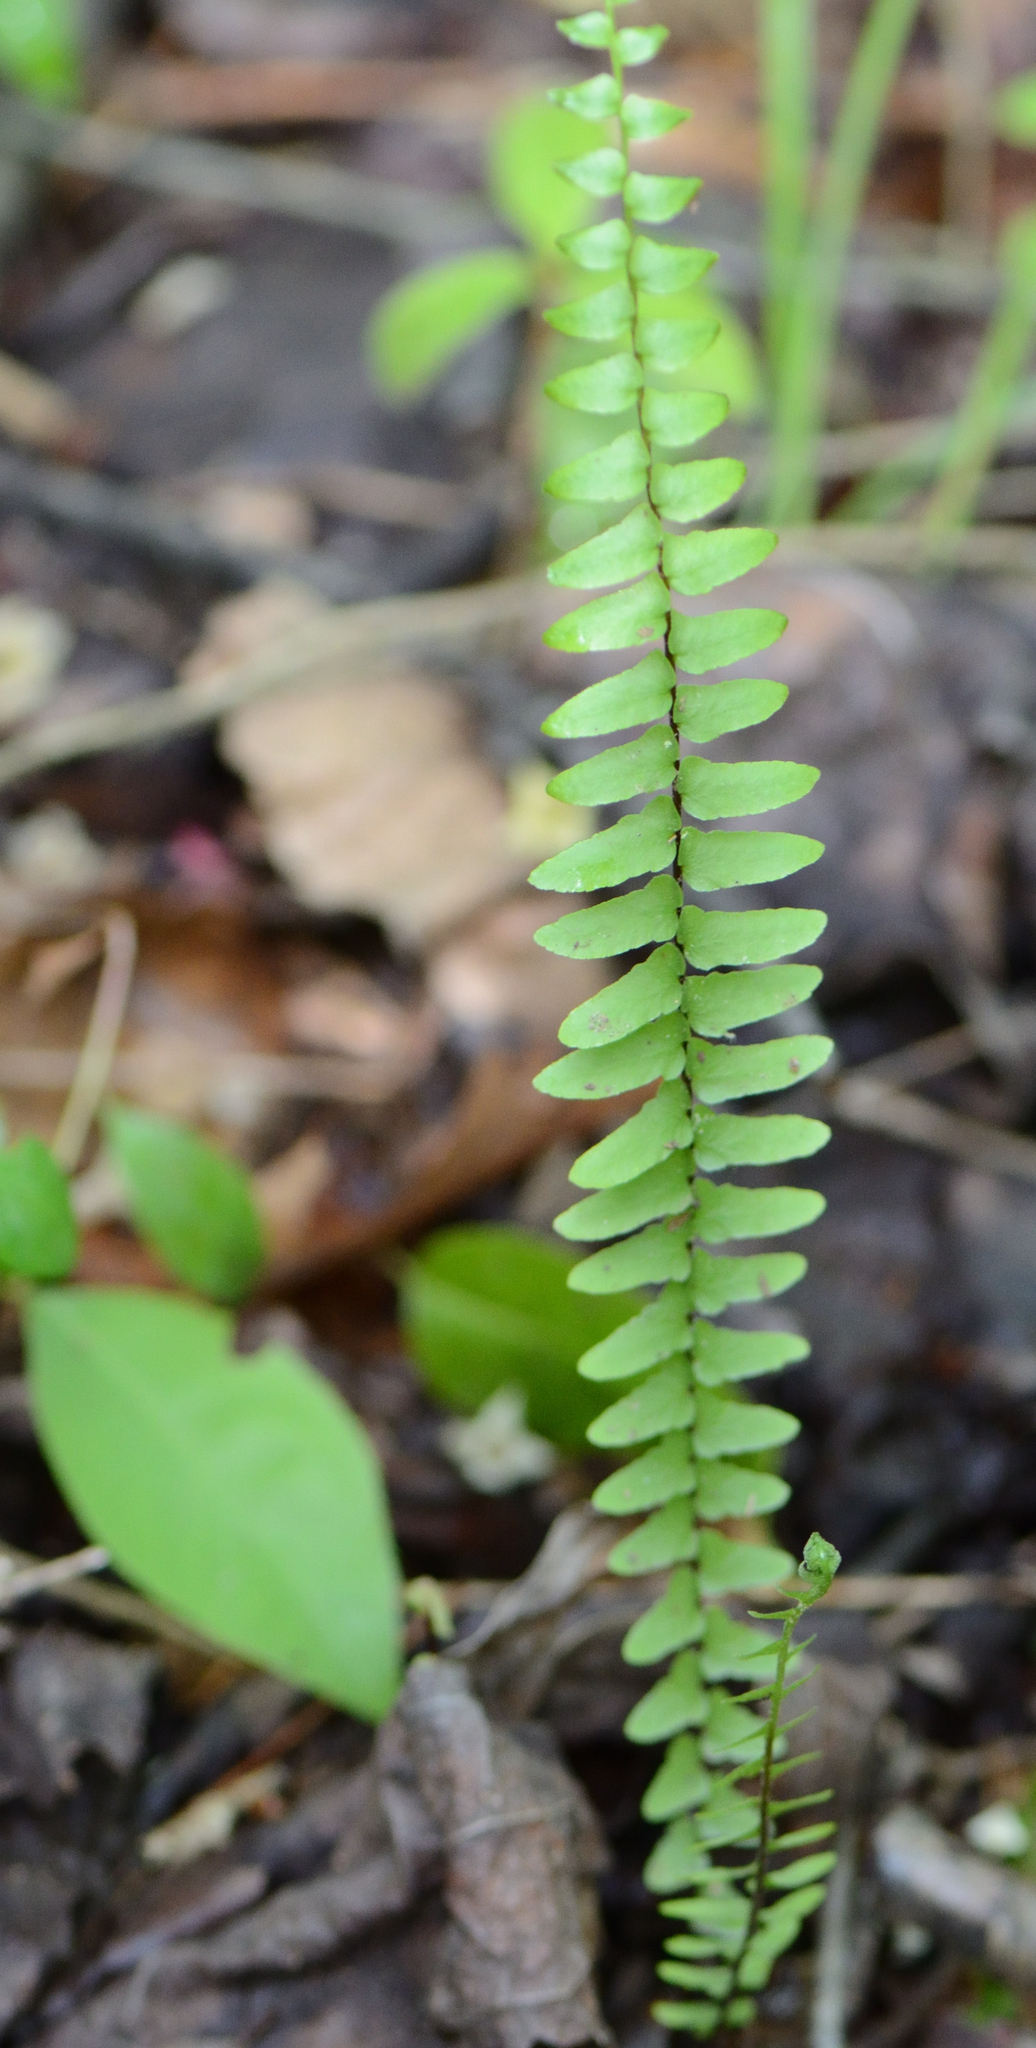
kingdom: Plantae
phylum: Tracheophyta
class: Polypodiopsida
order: Polypodiales
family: Aspleniaceae
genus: Asplenium
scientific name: Asplenium platyneuron
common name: Ebony spleenwort
